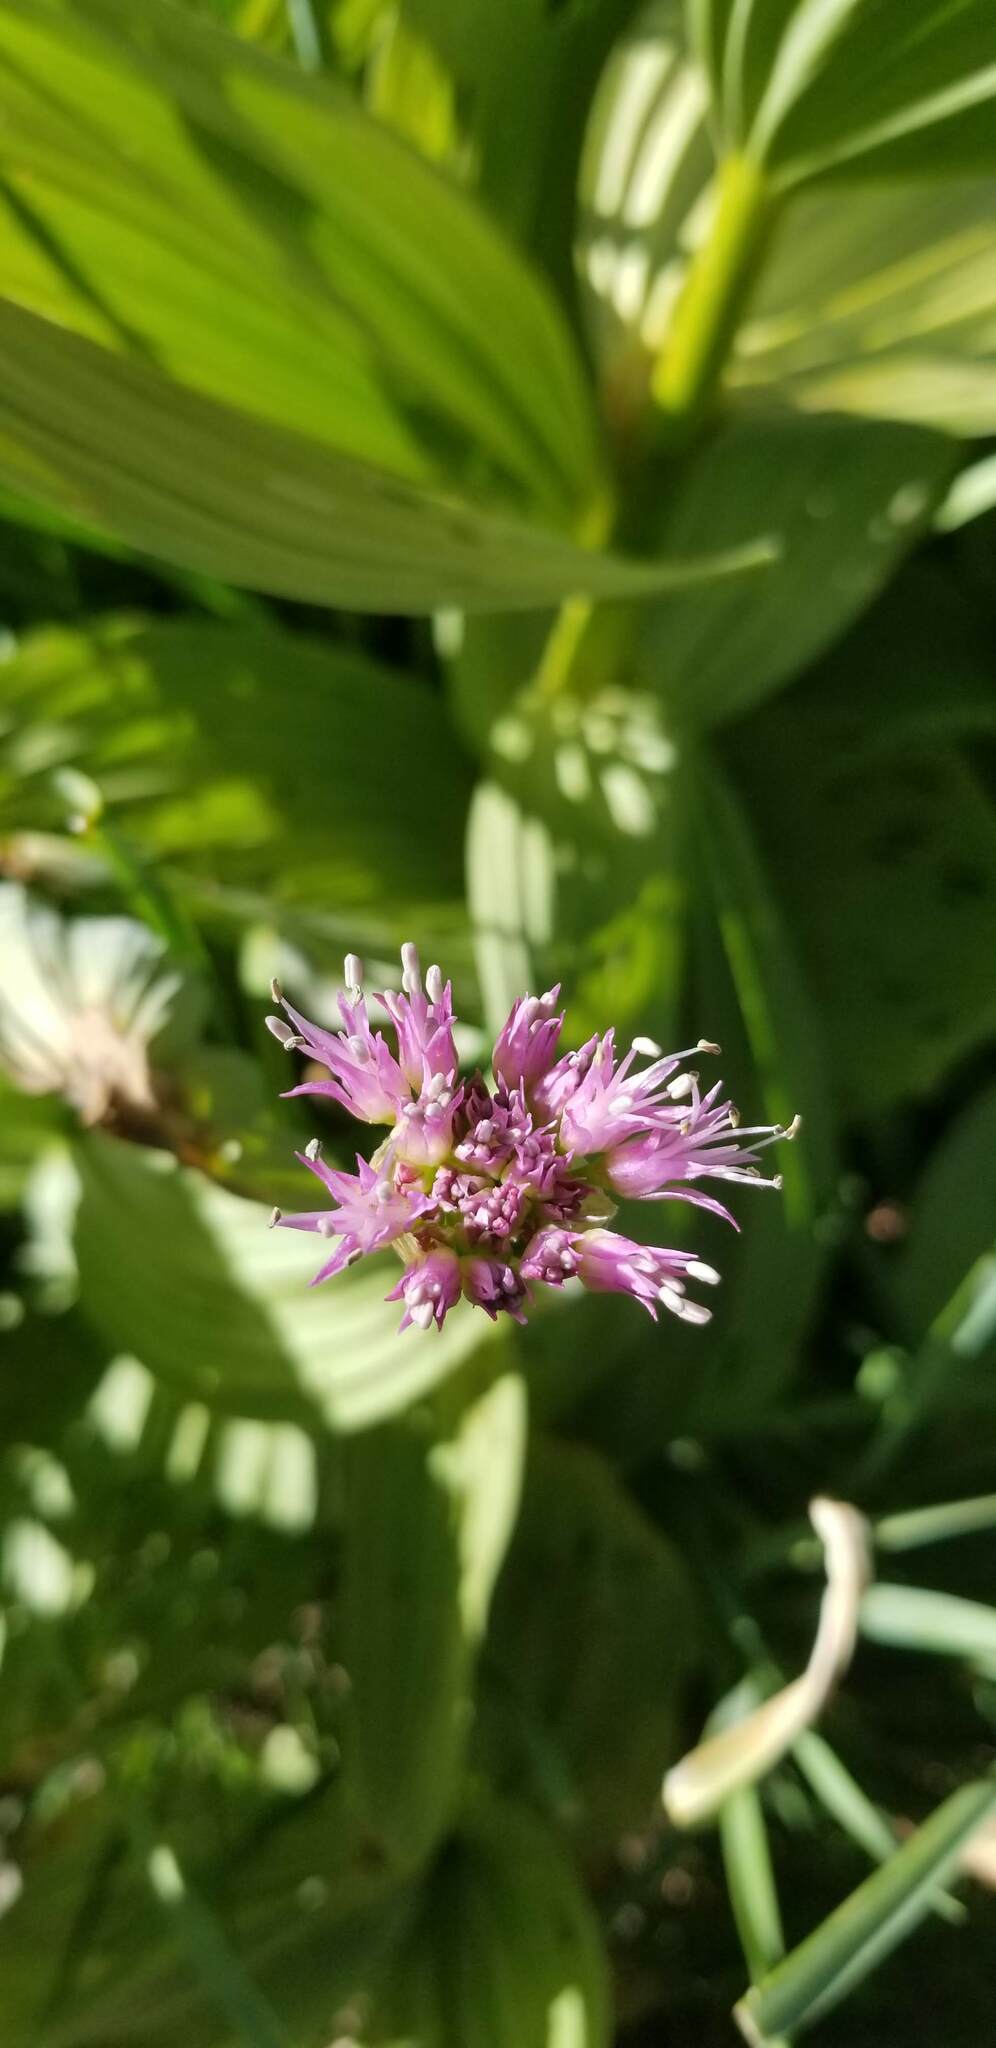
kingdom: Plantae
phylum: Tracheophyta
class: Liliopsida
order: Asparagales
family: Amaryllidaceae
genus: Allium
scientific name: Allium validum
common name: Pacific mountain onion
